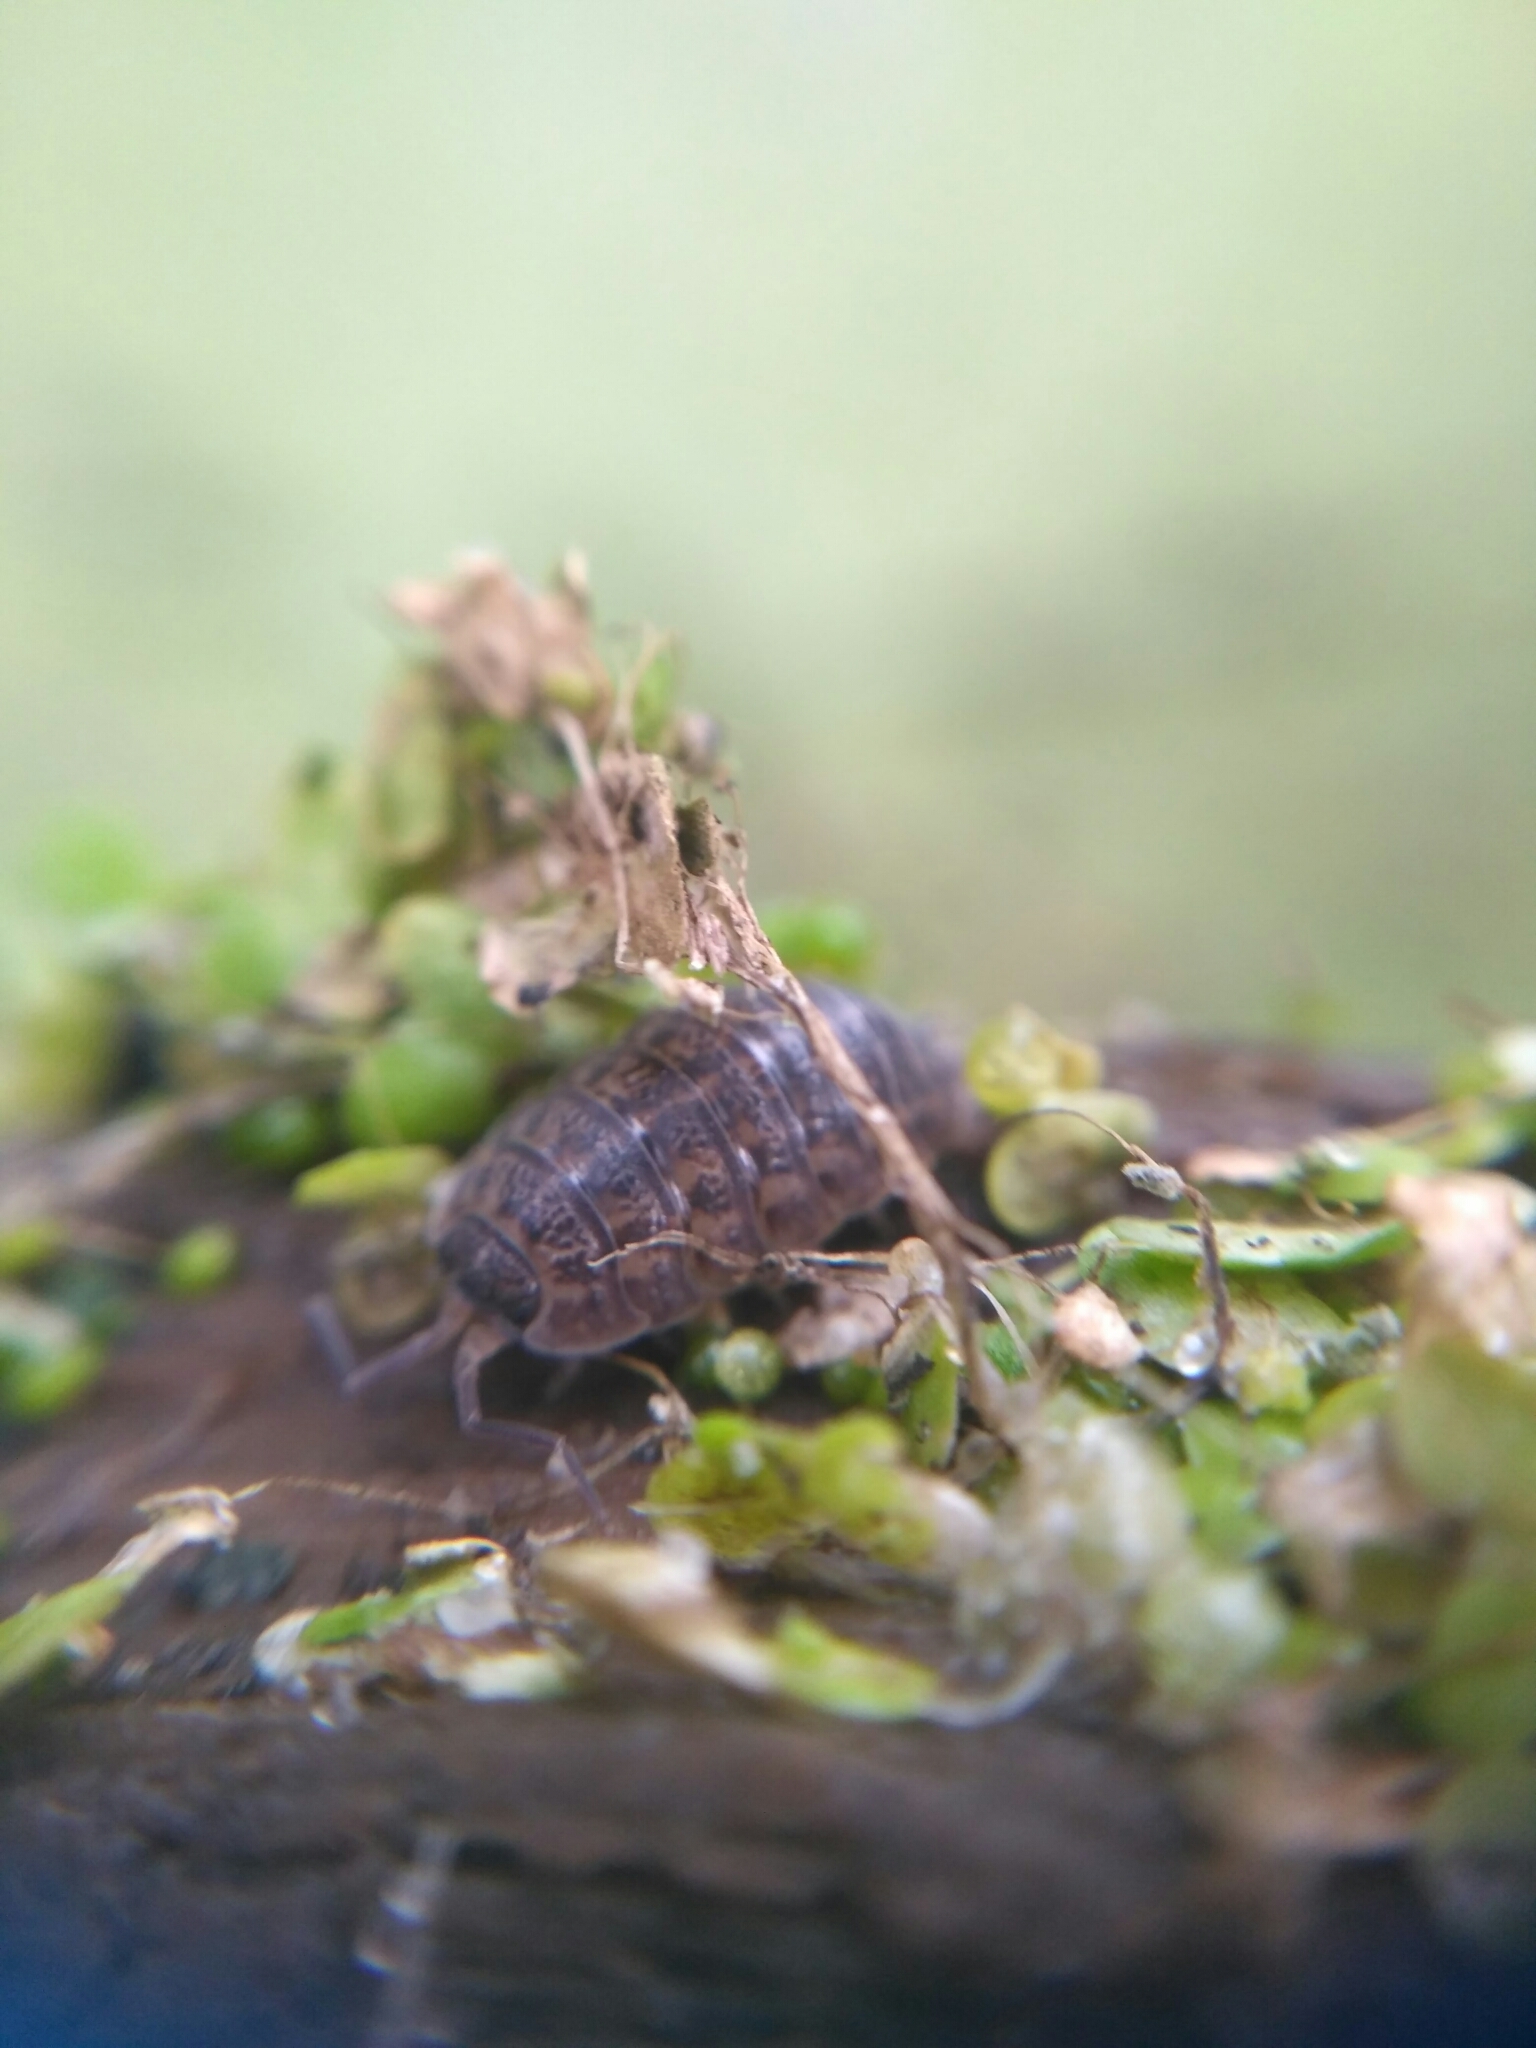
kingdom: Animalia
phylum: Arthropoda
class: Malacostraca
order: Isopoda
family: Trachelipodidae
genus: Trachelipus
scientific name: Trachelipus rathkii
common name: Isopod
